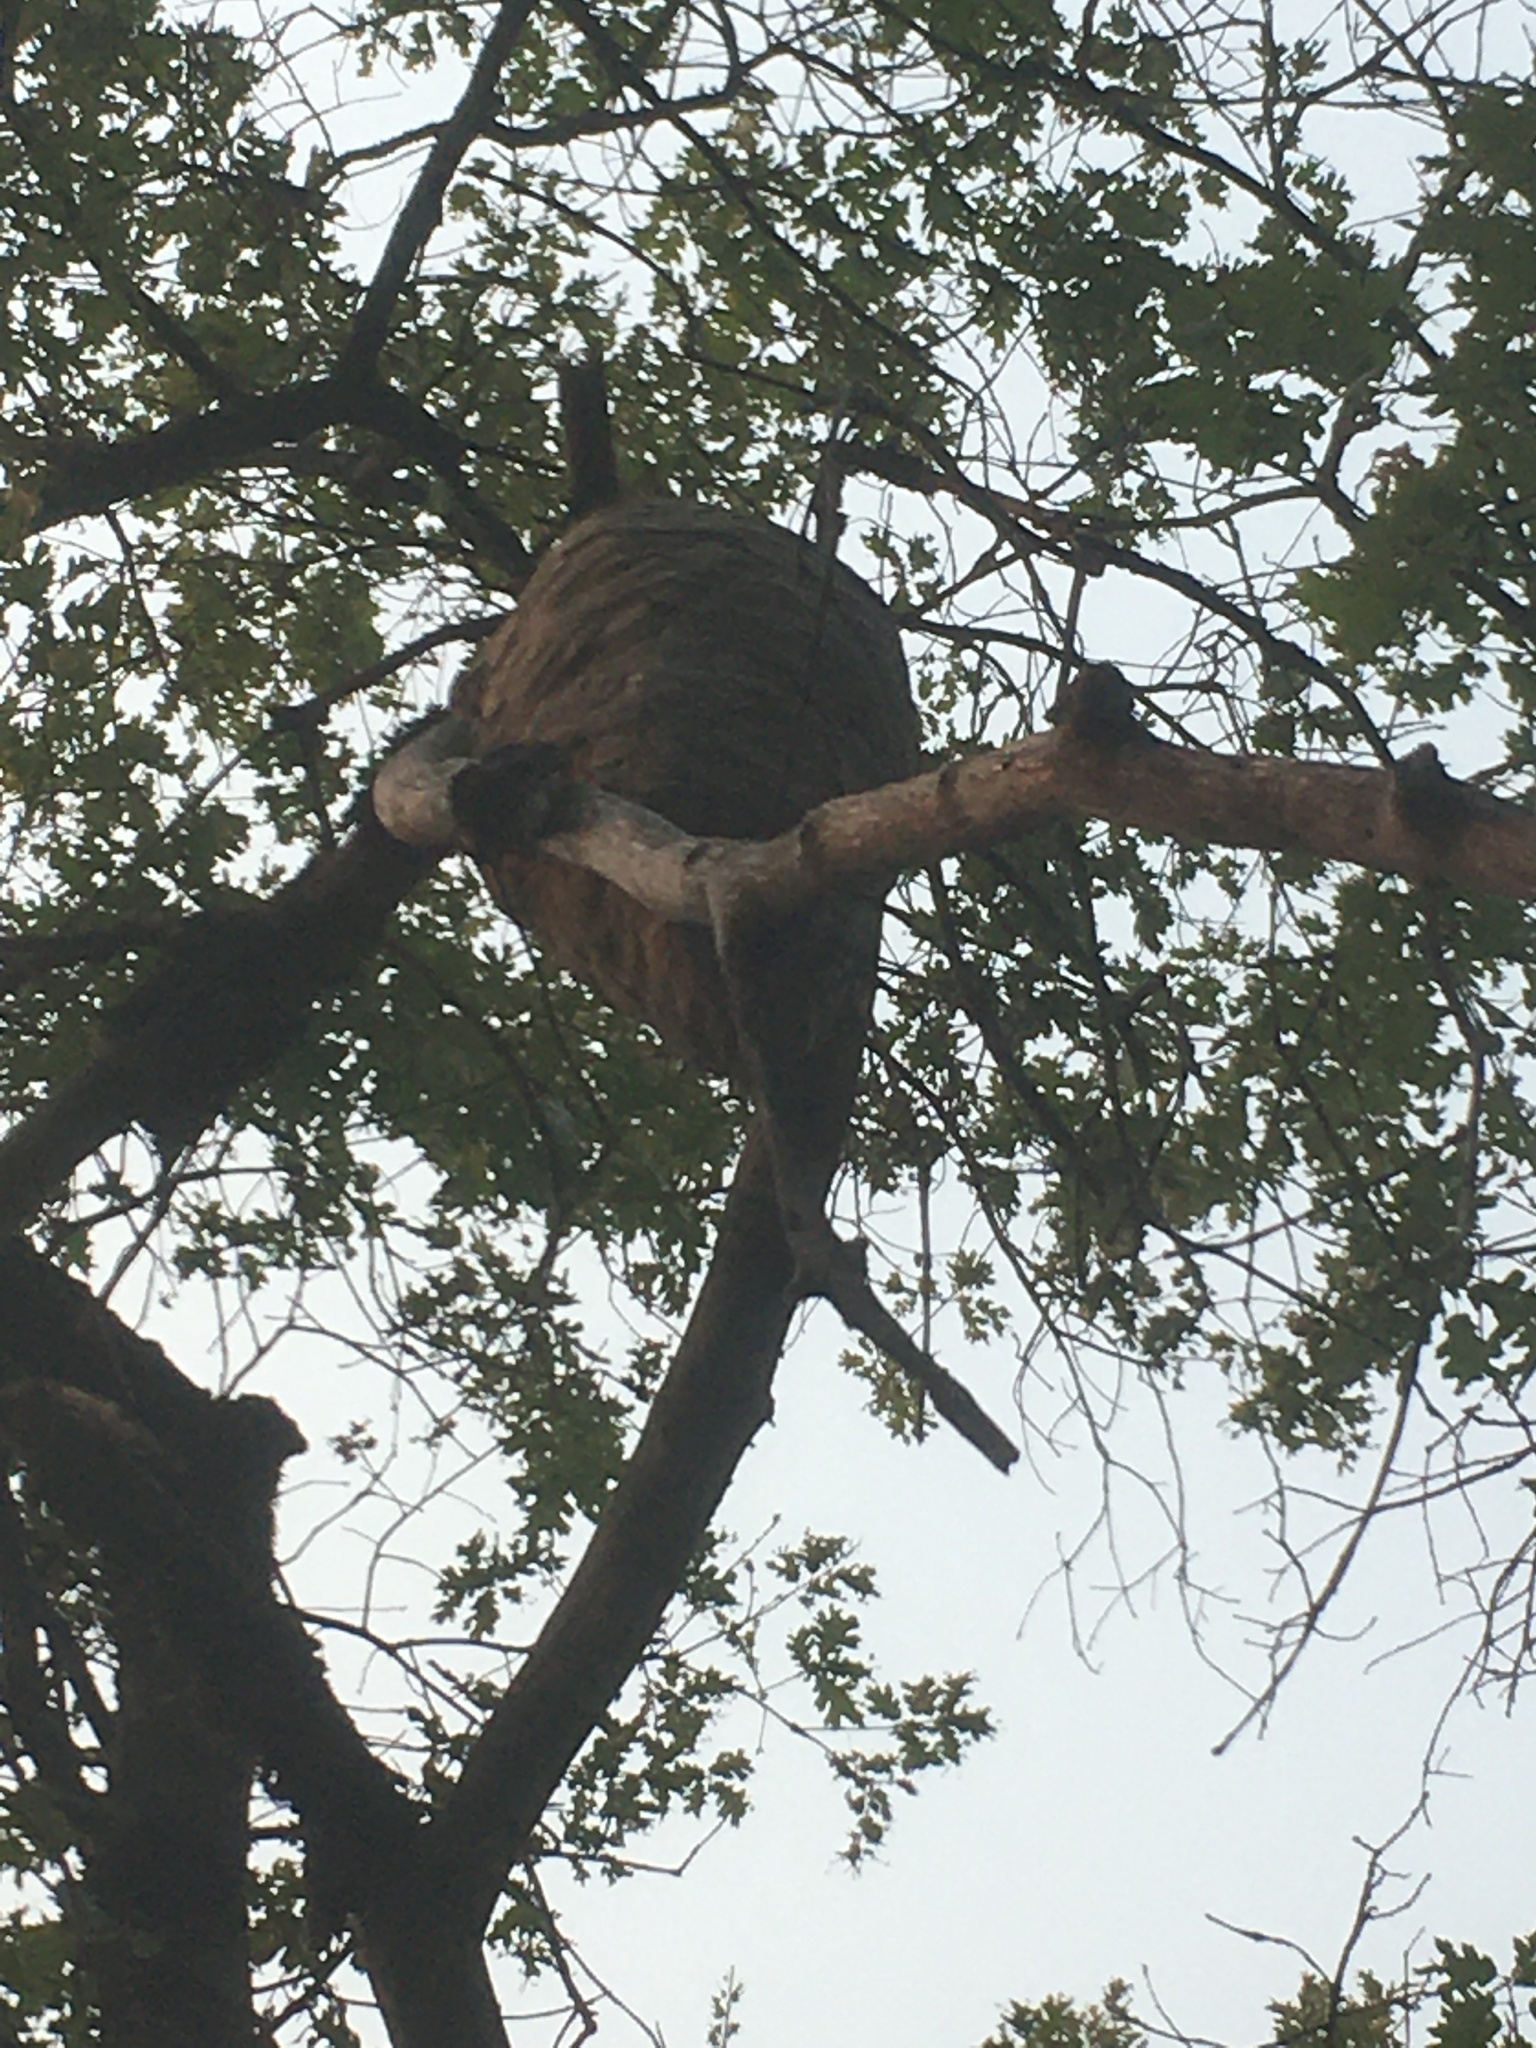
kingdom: Animalia
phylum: Arthropoda
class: Insecta
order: Hymenoptera
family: Vespidae
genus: Dolichovespula
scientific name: Dolichovespula
